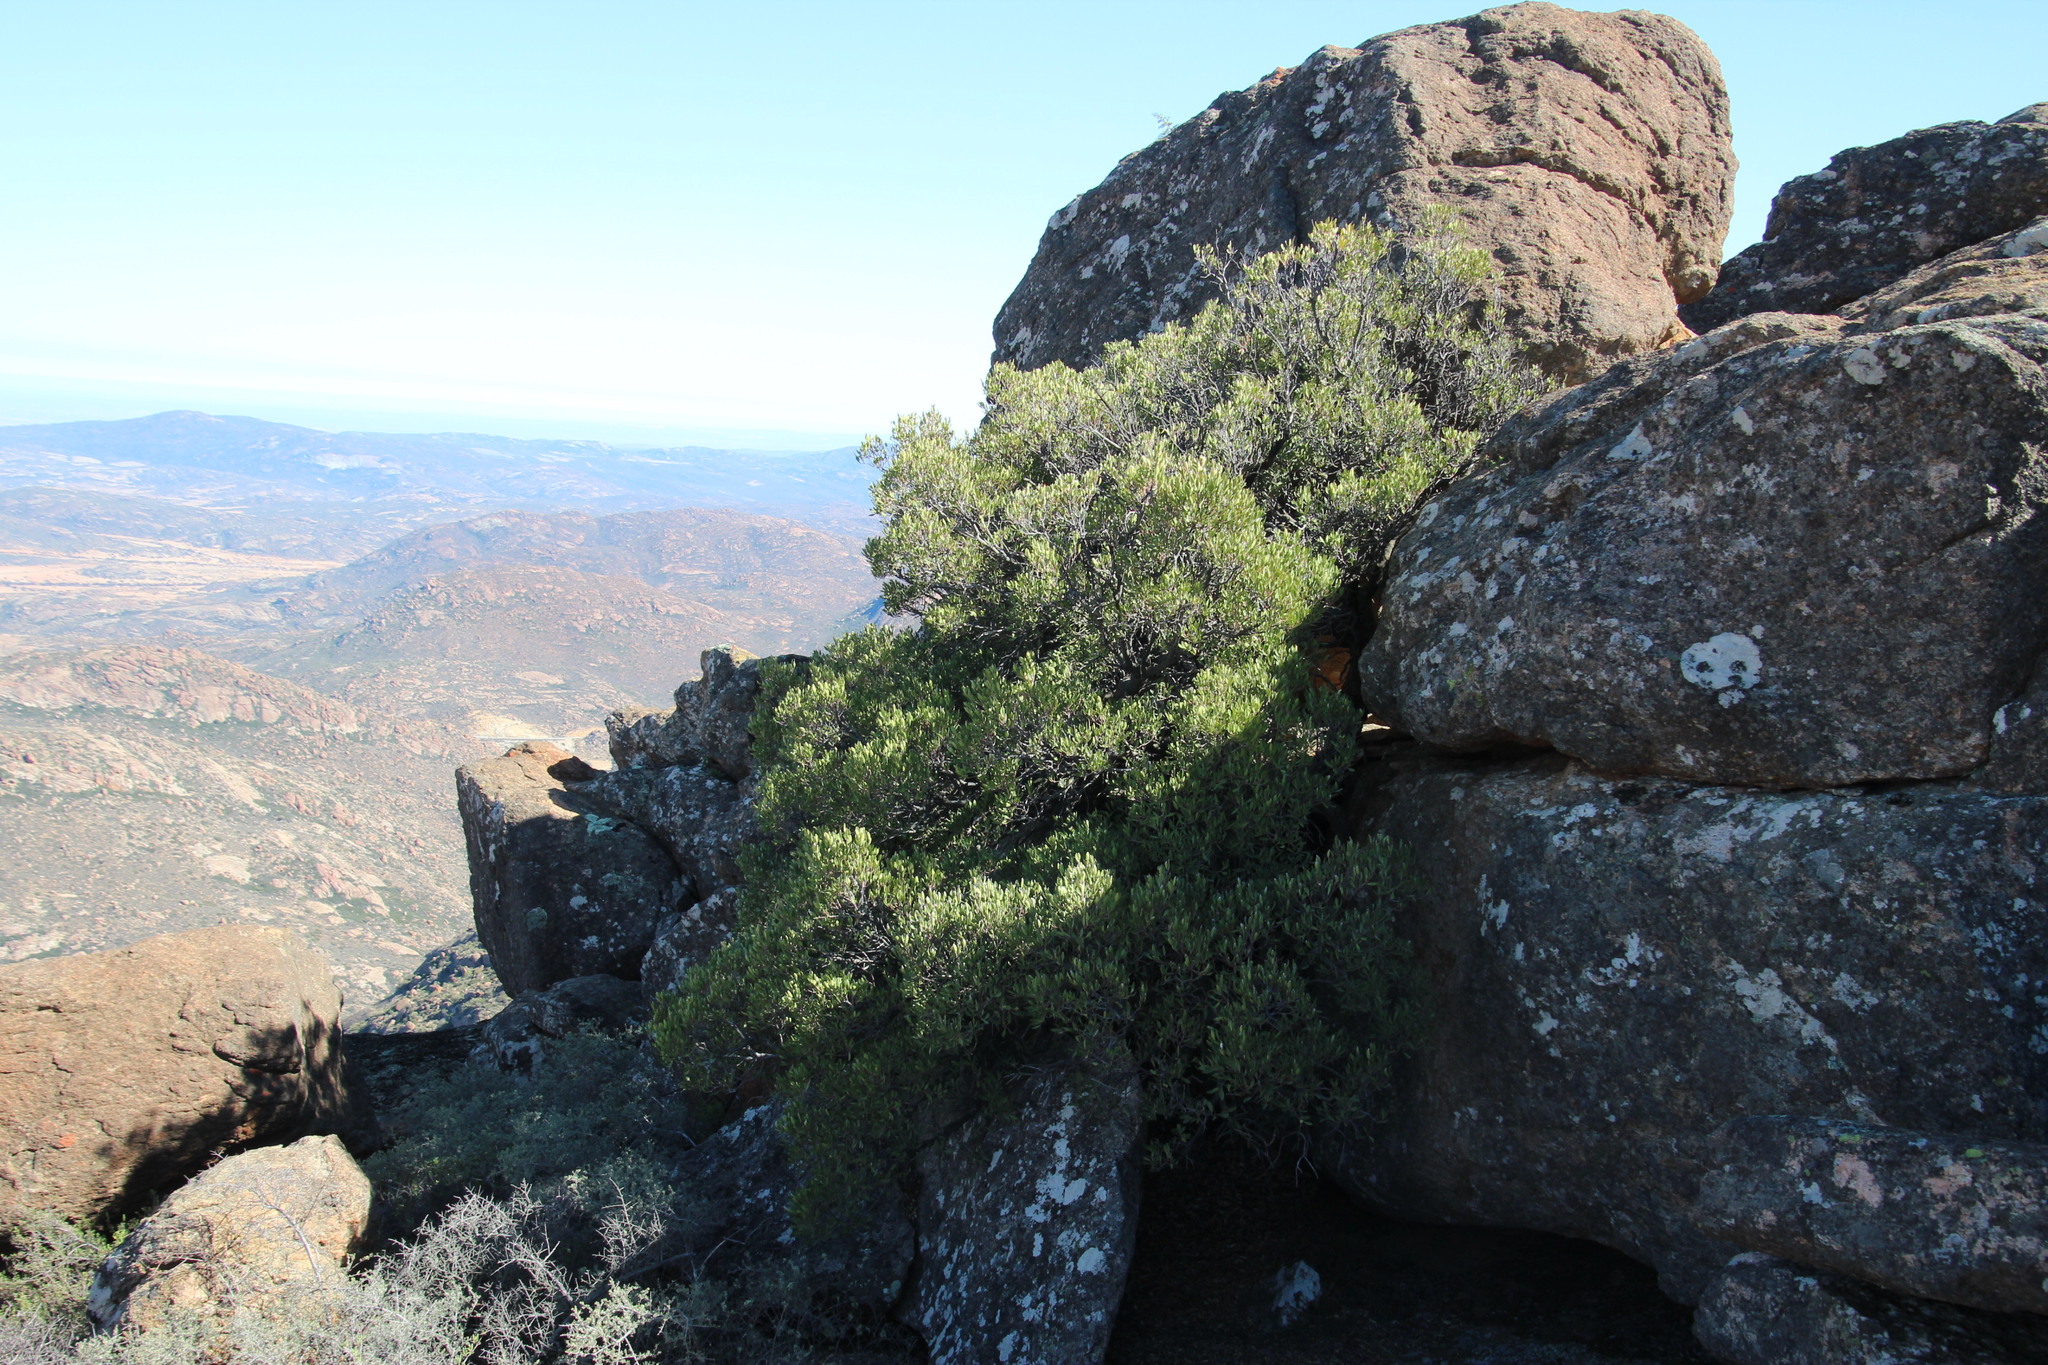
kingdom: Plantae
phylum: Tracheophyta
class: Magnoliopsida
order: Celastrales
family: Celastraceae
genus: Gymnosporia
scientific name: Gymnosporia laurina
